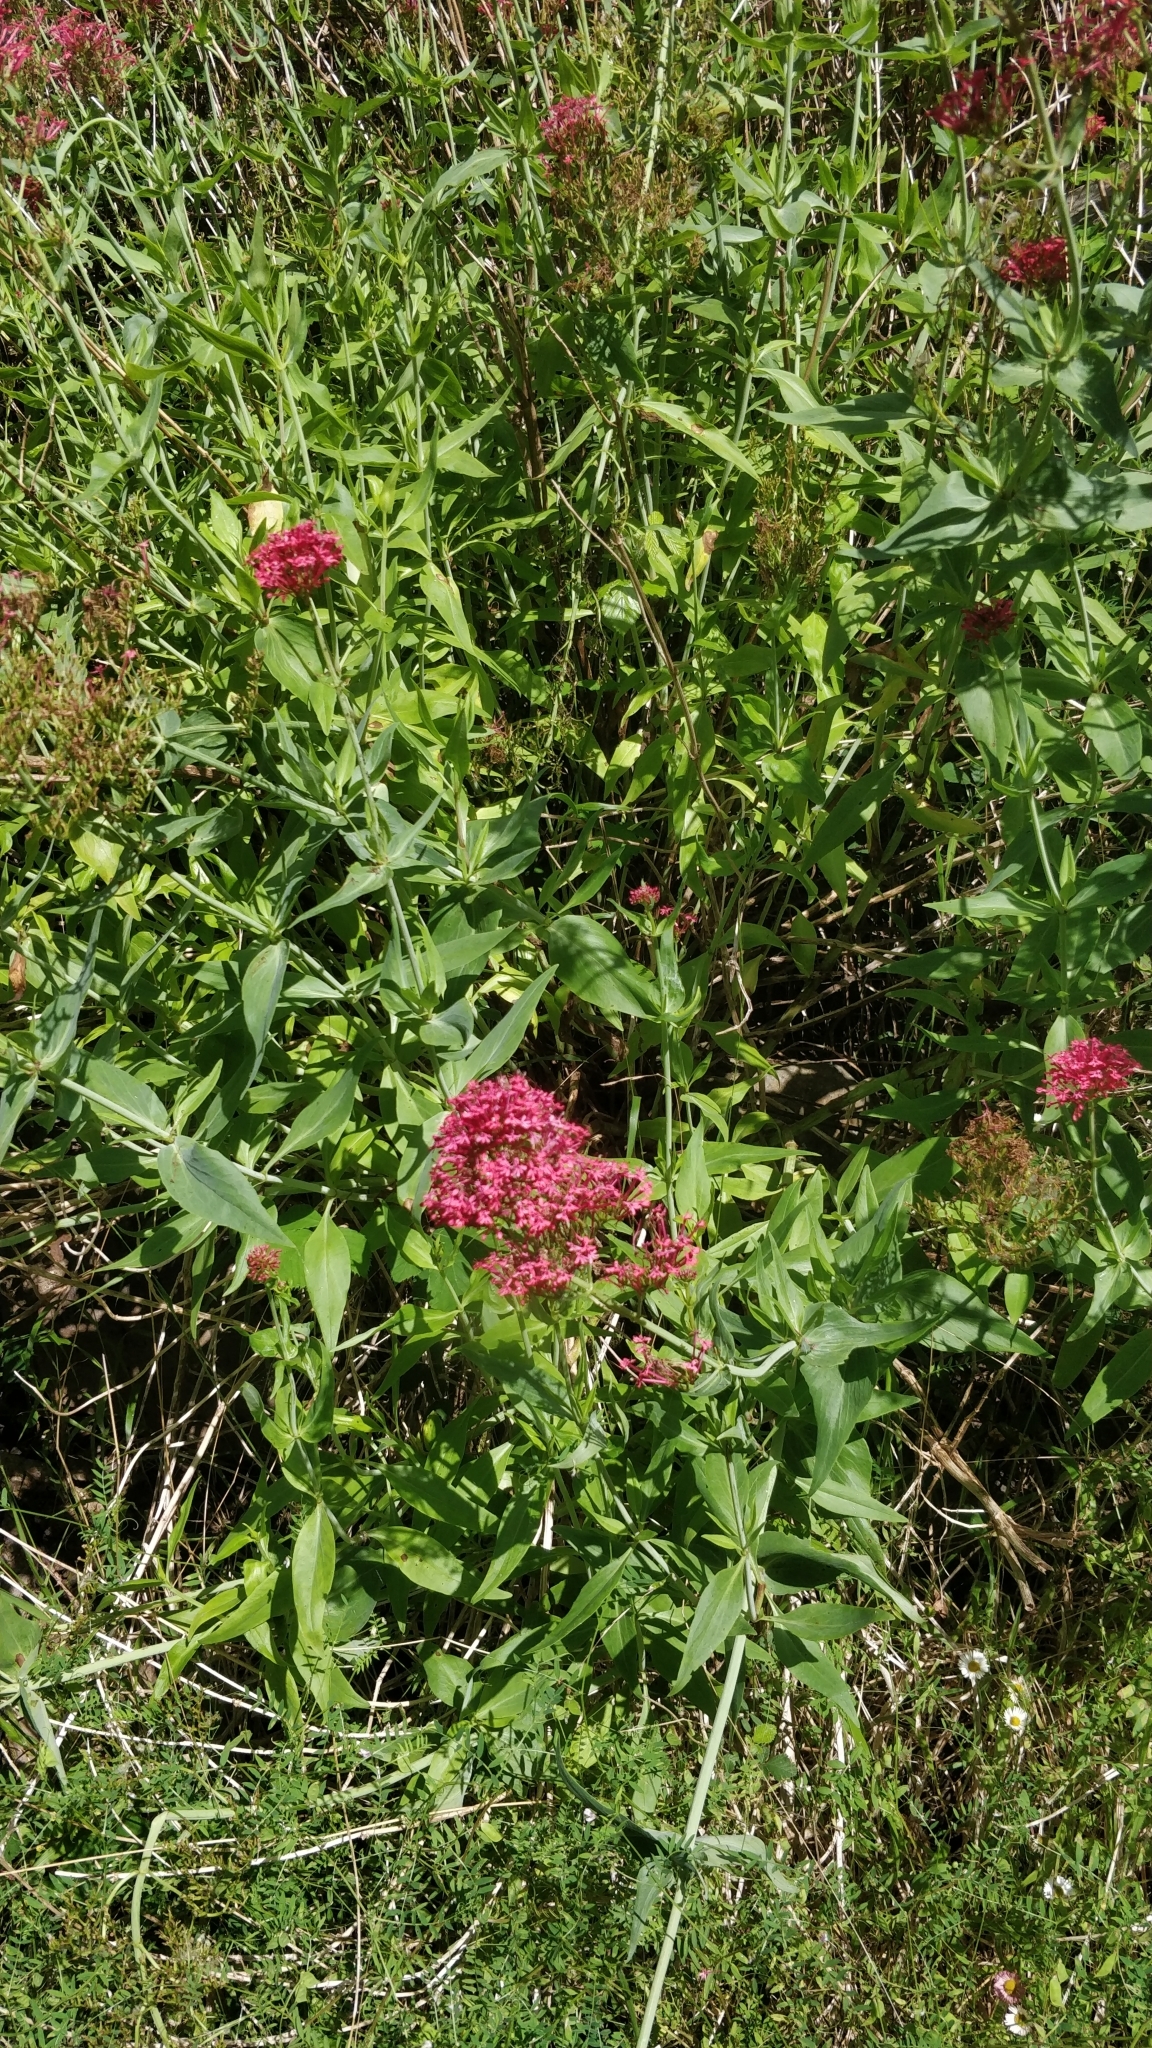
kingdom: Plantae
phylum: Tracheophyta
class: Magnoliopsida
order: Dipsacales
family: Caprifoliaceae
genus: Centranthus
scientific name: Centranthus ruber
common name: Red valerian
